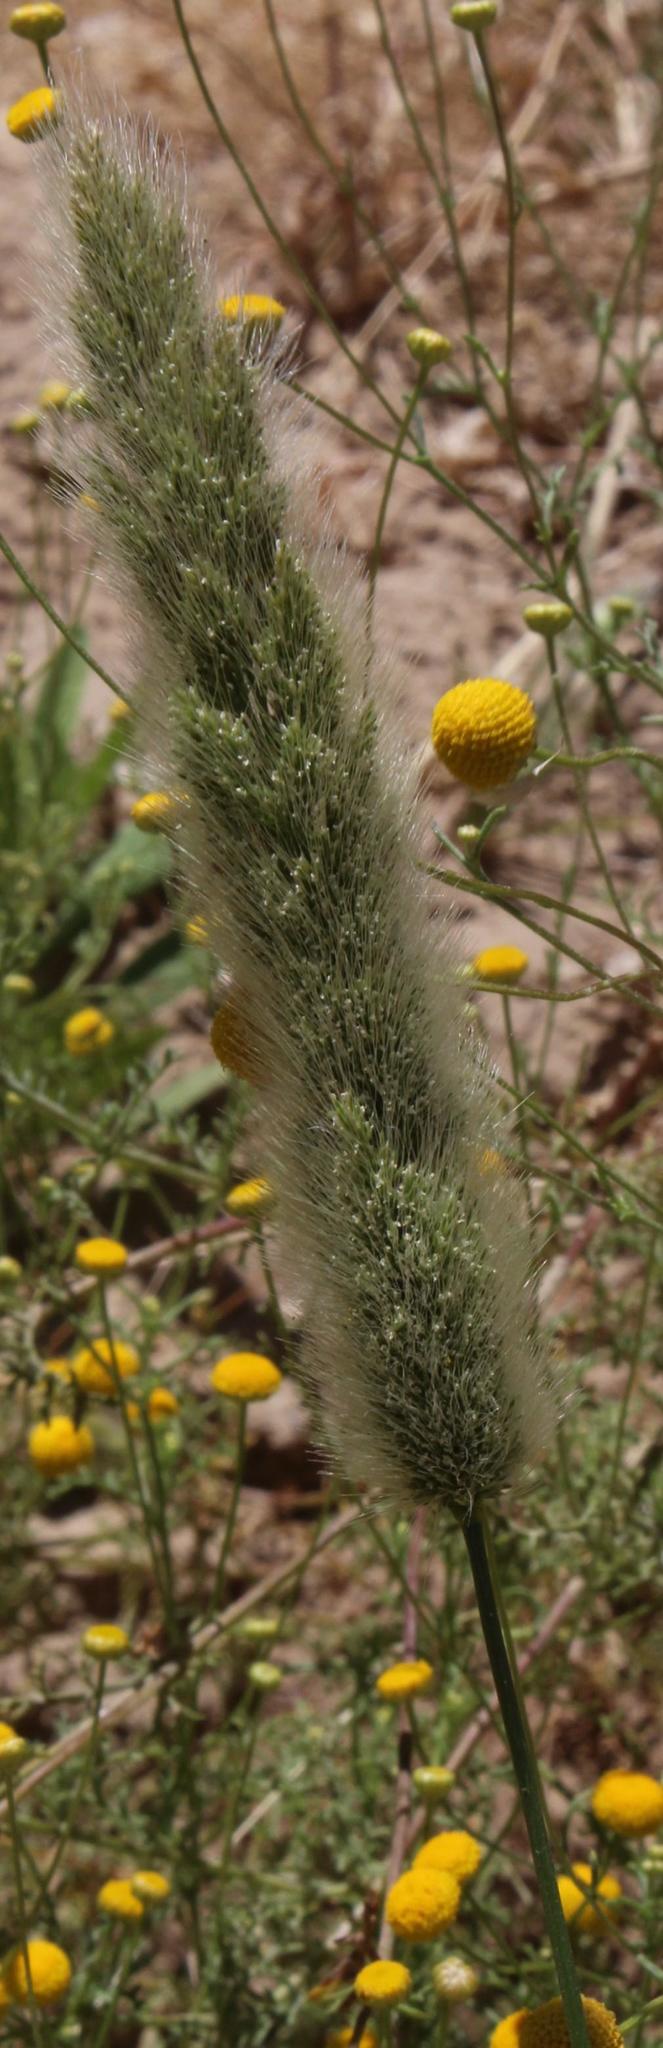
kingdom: Plantae
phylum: Tracheophyta
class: Liliopsida
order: Poales
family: Poaceae
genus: Polypogon
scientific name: Polypogon monspeliensis
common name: Annual rabbitsfoot grass
